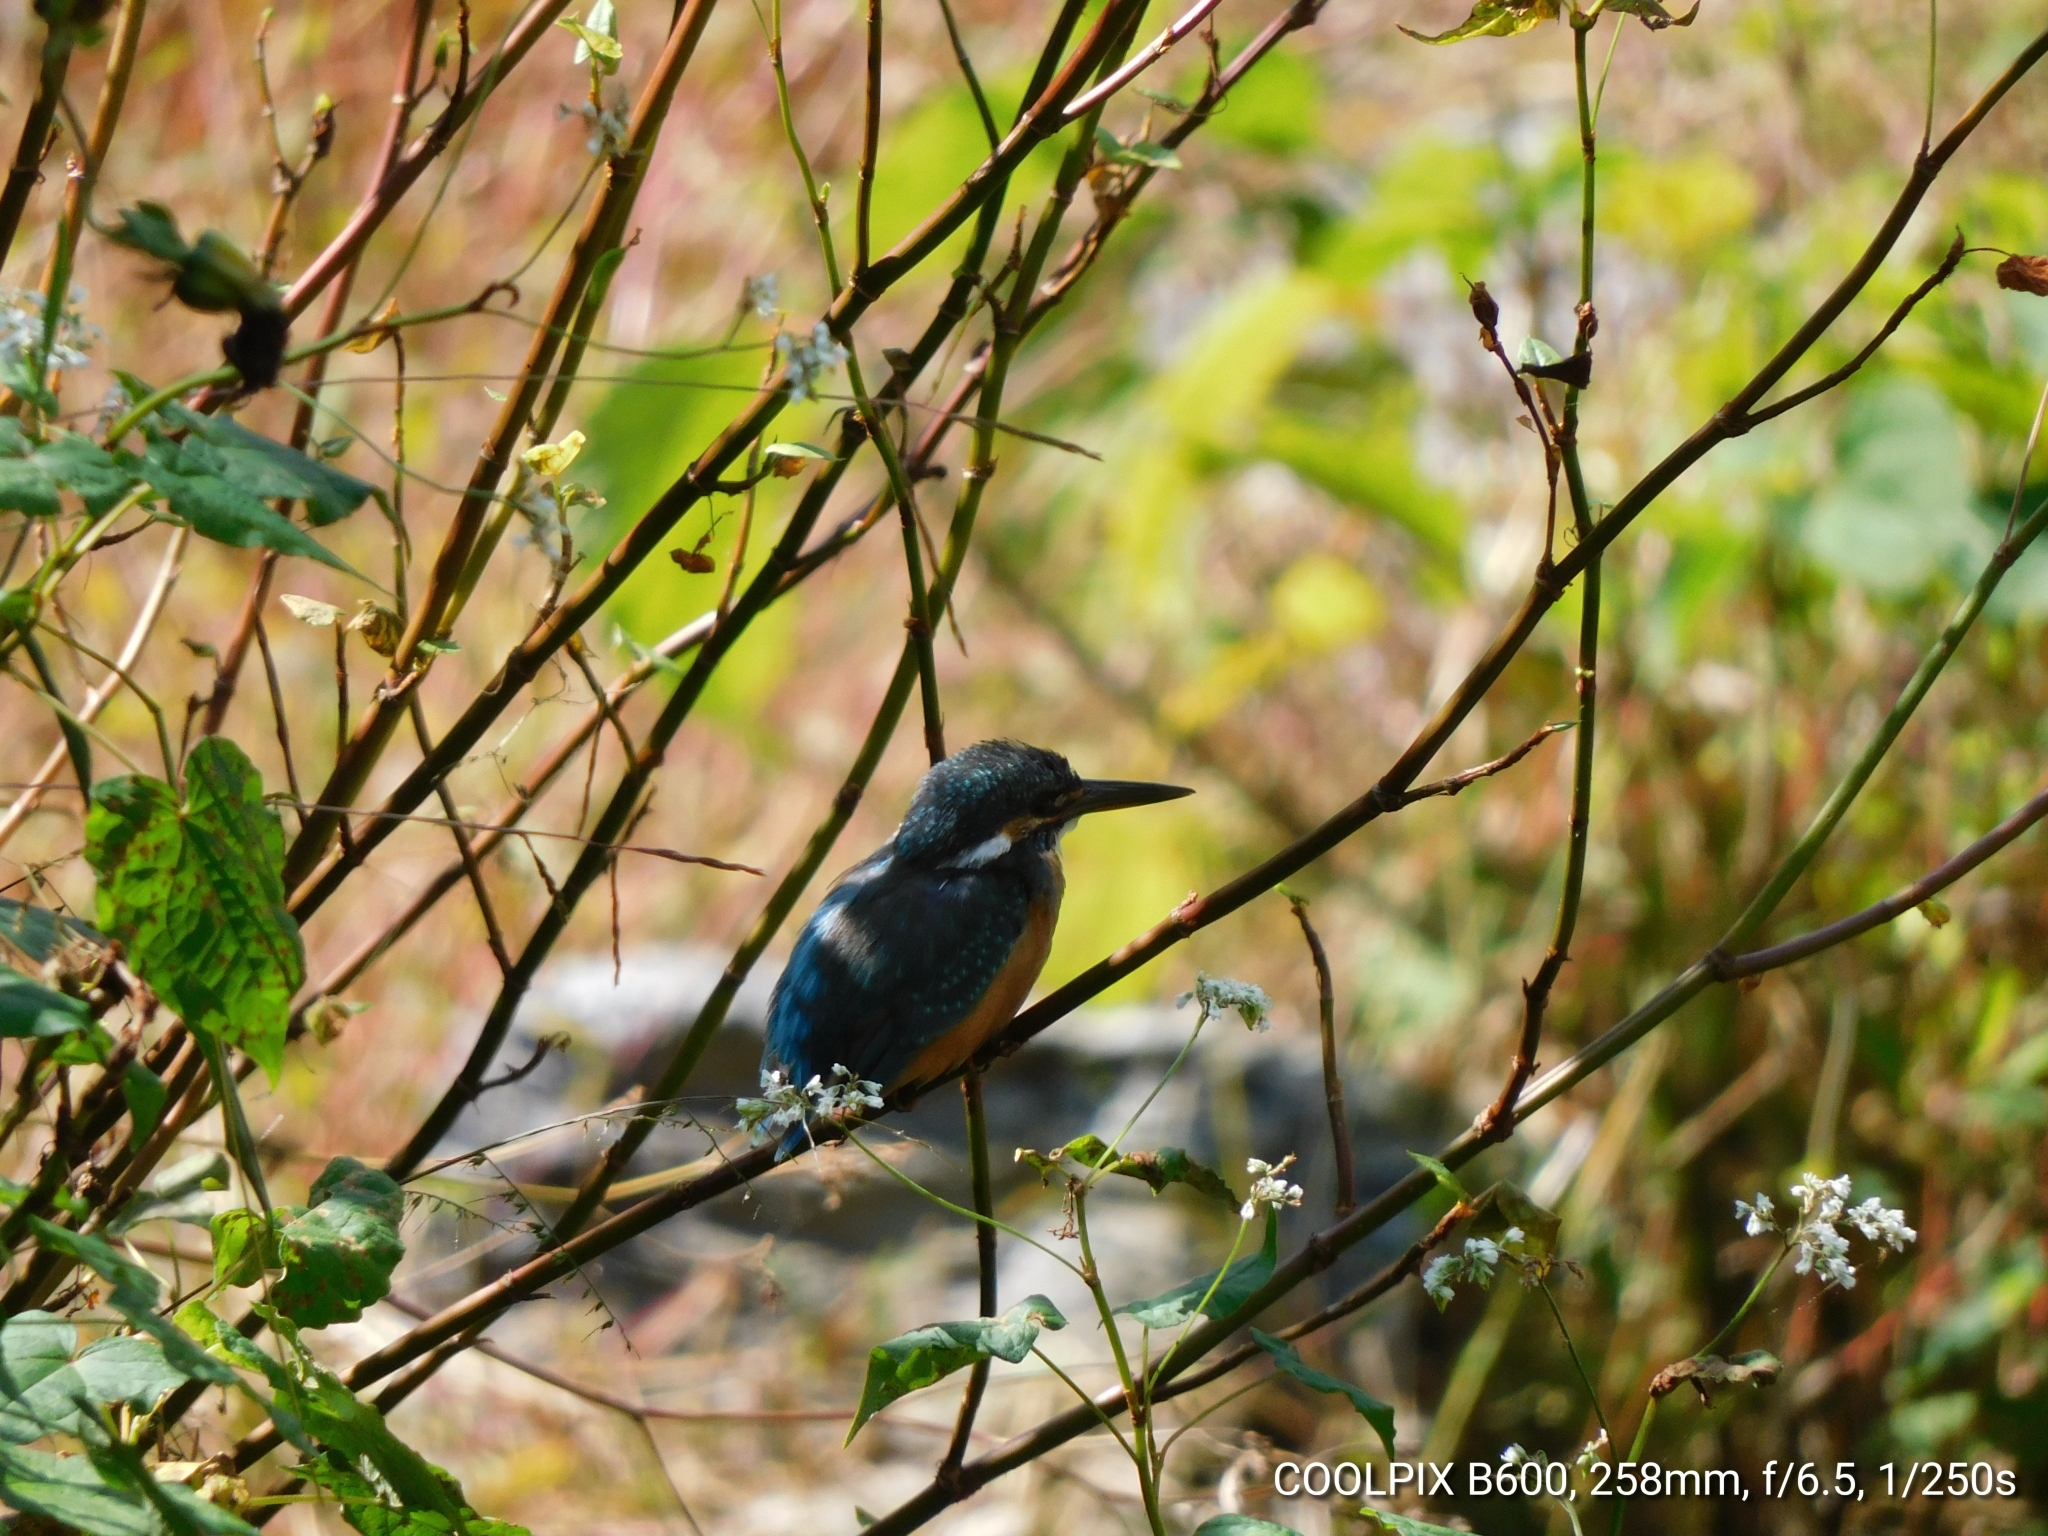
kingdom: Animalia
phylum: Chordata
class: Aves
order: Coraciiformes
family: Alcedinidae
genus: Alcedo
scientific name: Alcedo atthis
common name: Common kingfisher
